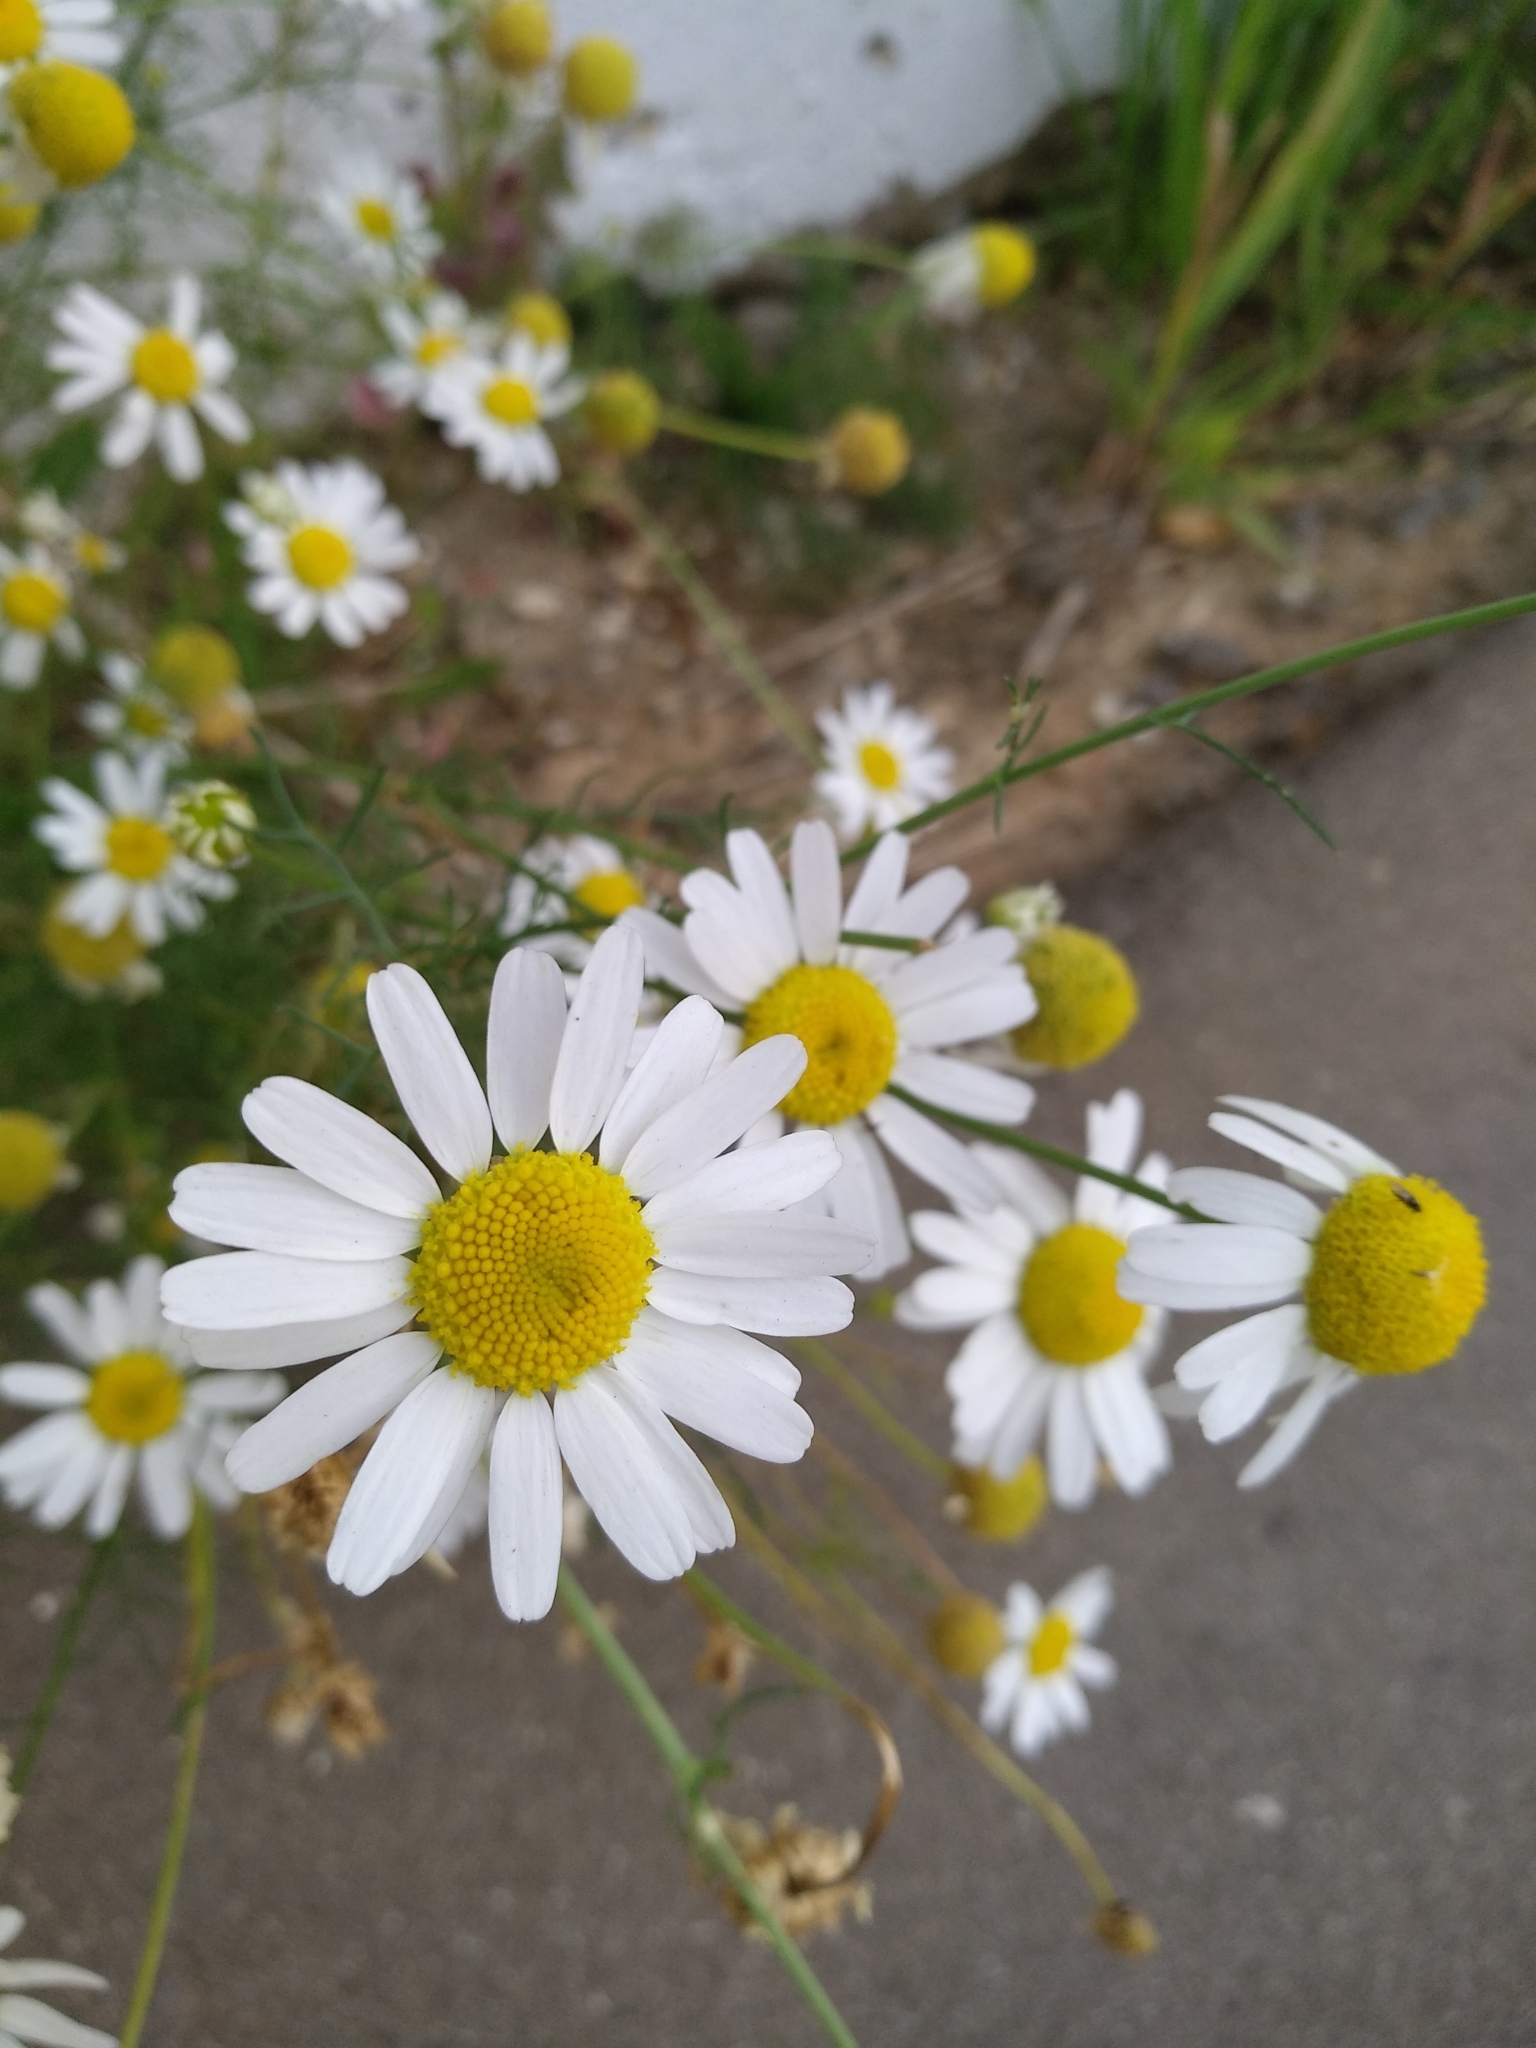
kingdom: Plantae
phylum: Tracheophyta
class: Magnoliopsida
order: Asterales
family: Asteraceae
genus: Tripleurospermum
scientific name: Tripleurospermum inodorum
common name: Scentless mayweed
